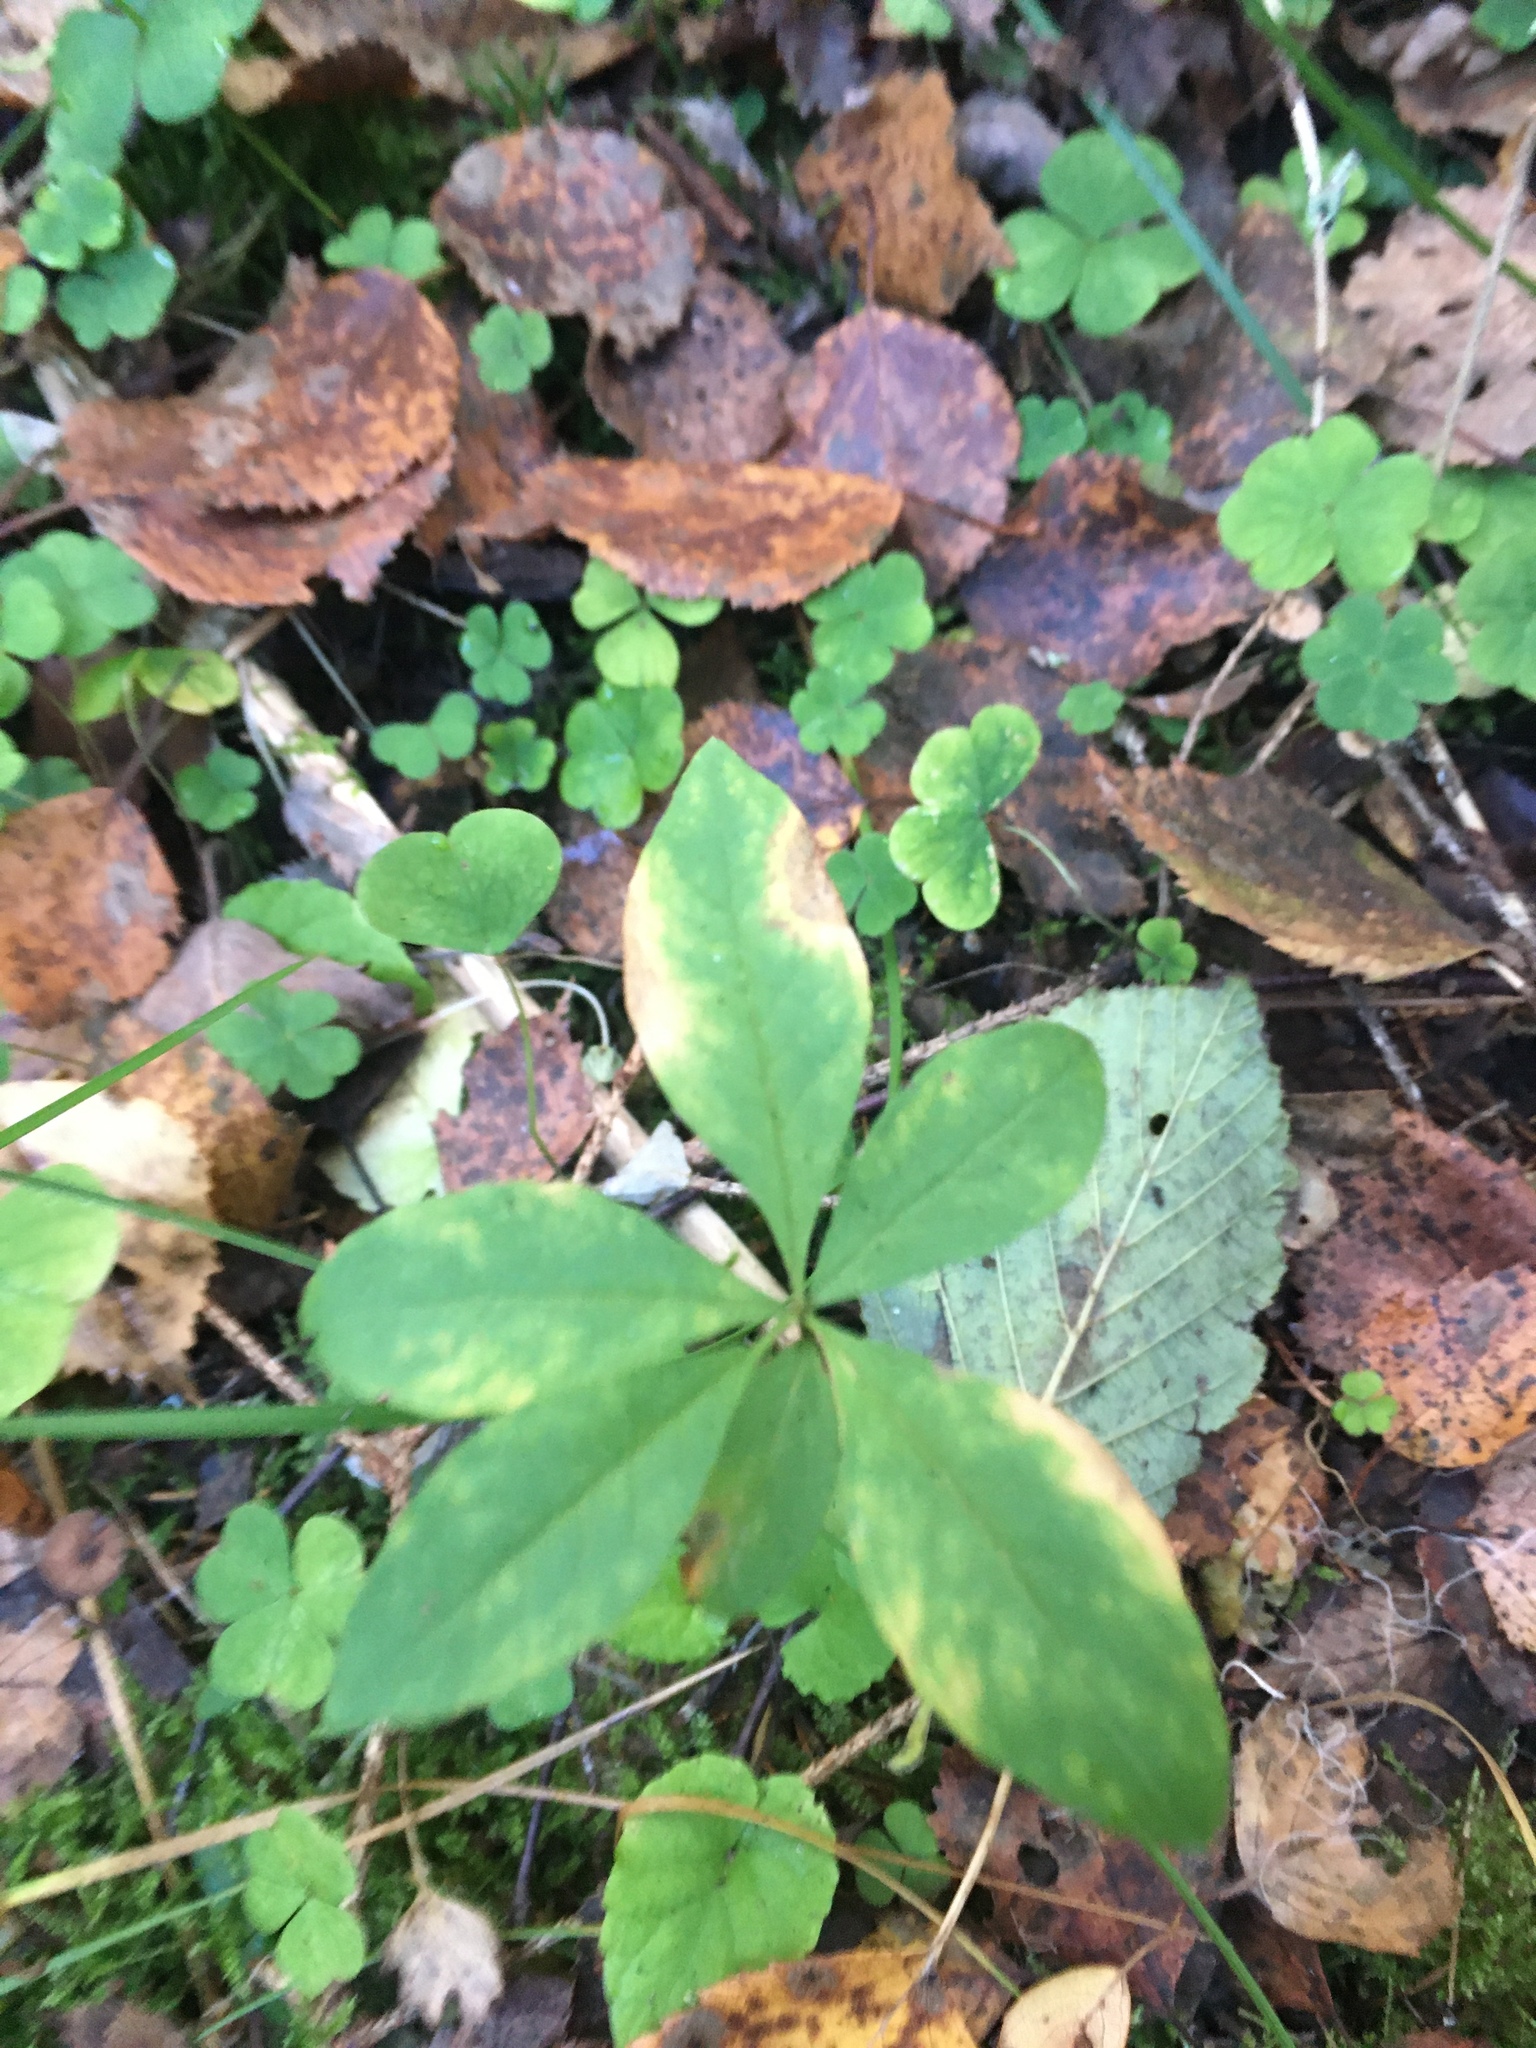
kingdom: Plantae
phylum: Tracheophyta
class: Magnoliopsida
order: Ericales
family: Primulaceae
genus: Lysimachia
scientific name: Lysimachia europaea
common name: Arctic starflower
